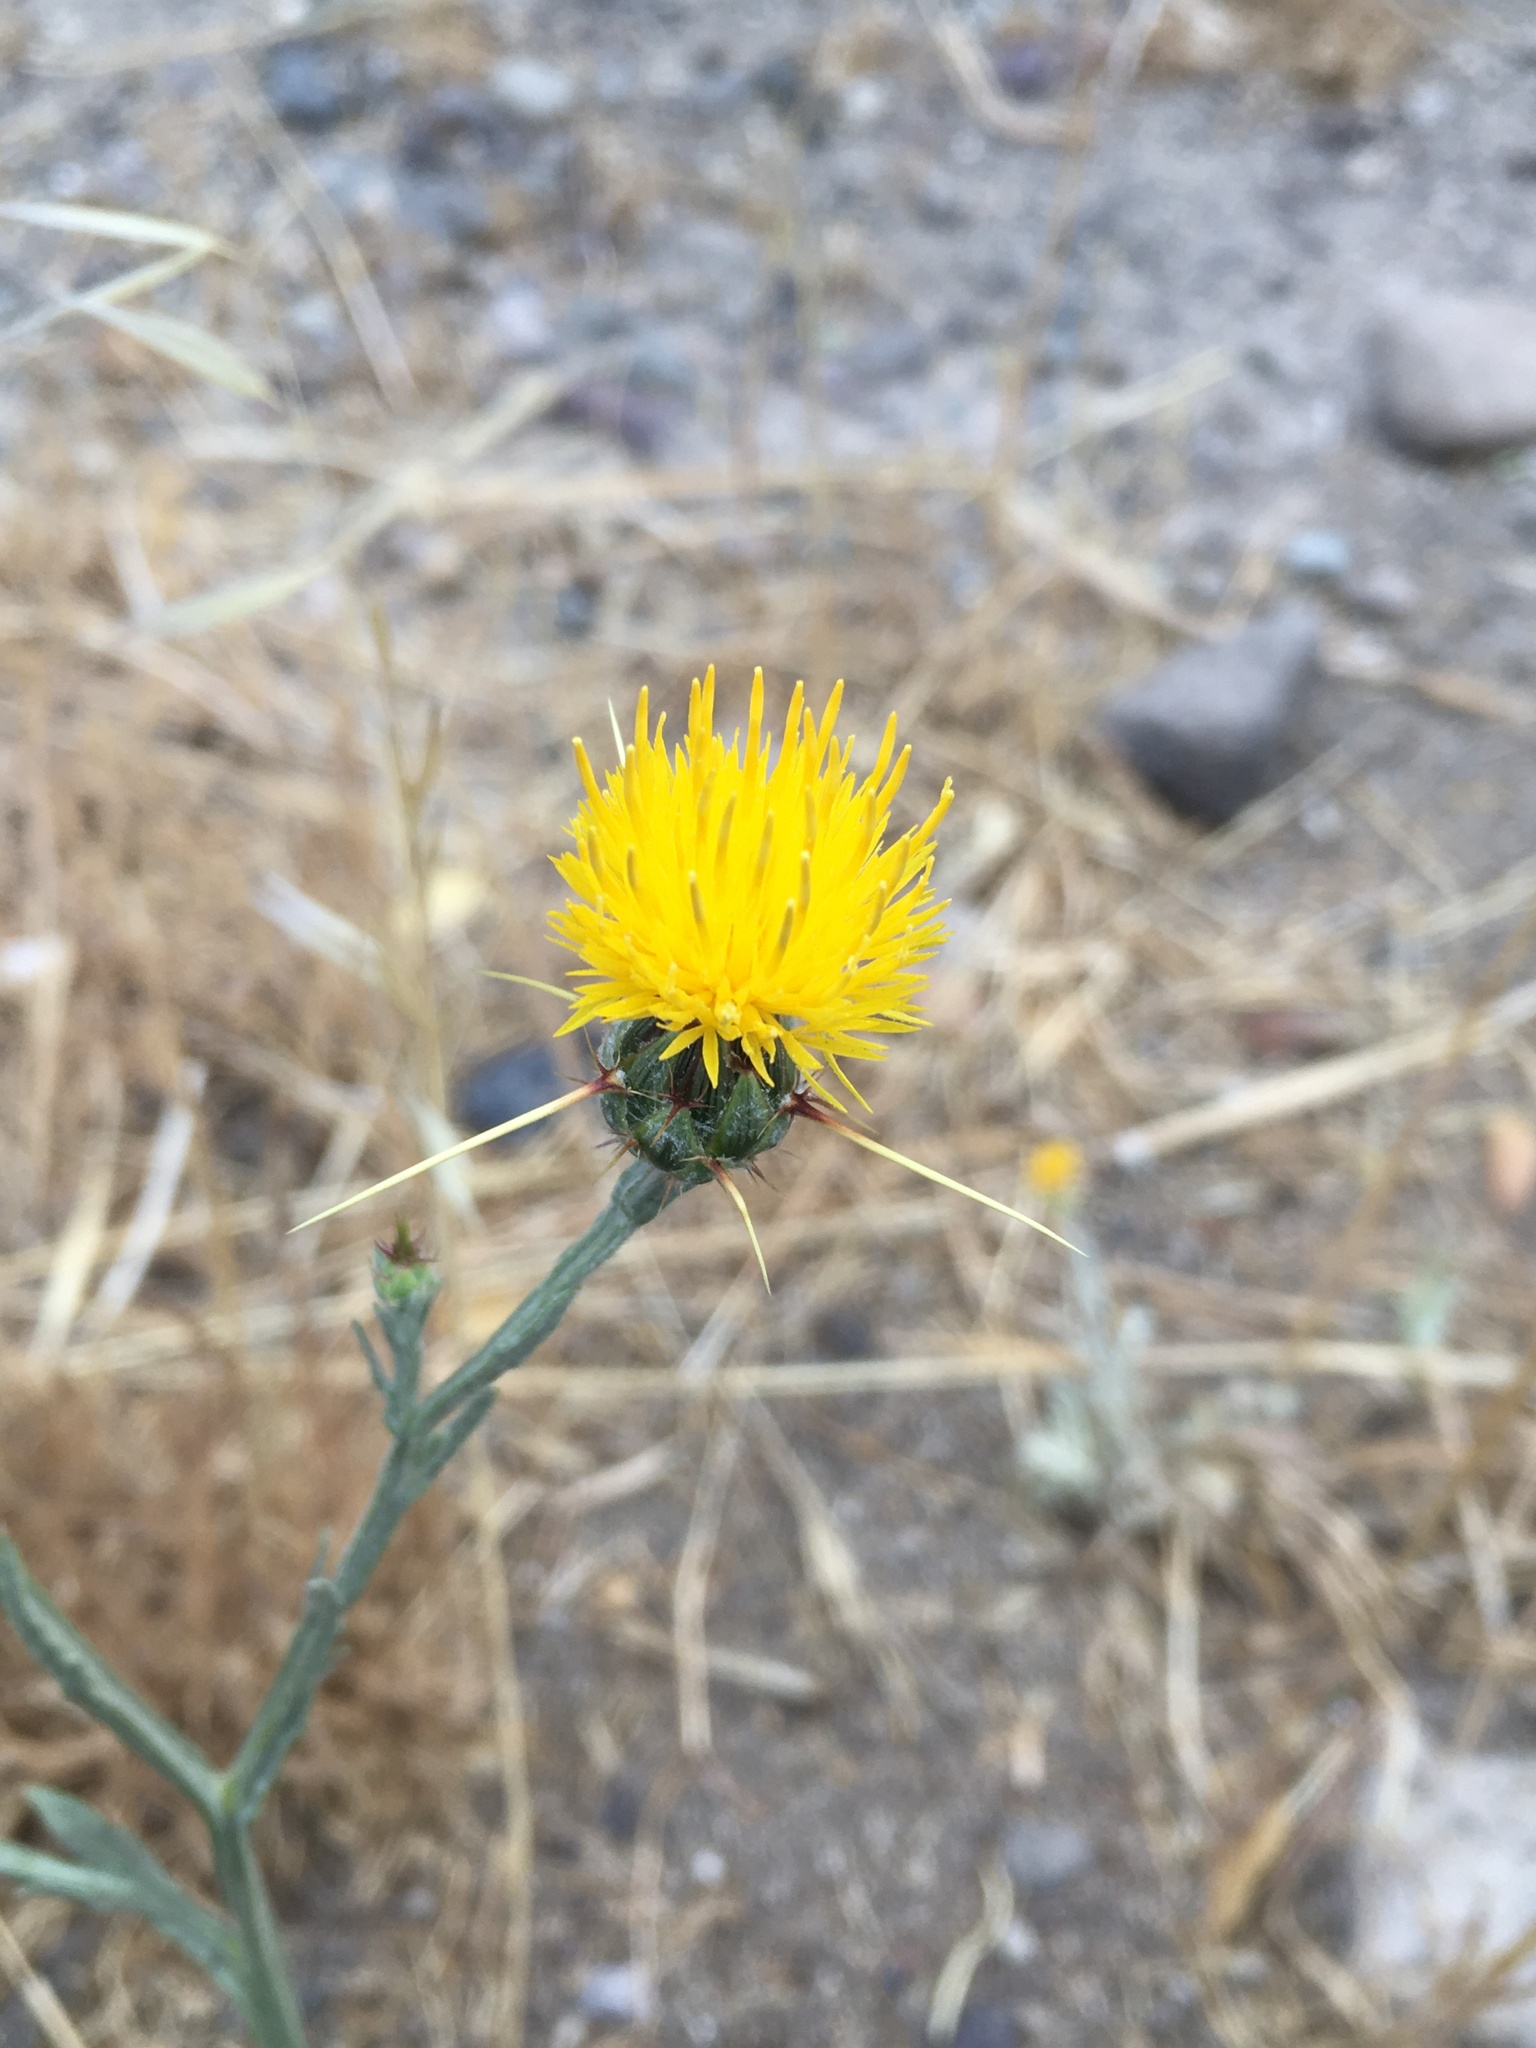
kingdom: Plantae
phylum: Tracheophyta
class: Magnoliopsida
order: Asterales
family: Asteraceae
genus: Centaurea
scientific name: Centaurea solstitialis
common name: Yellow star-thistle
